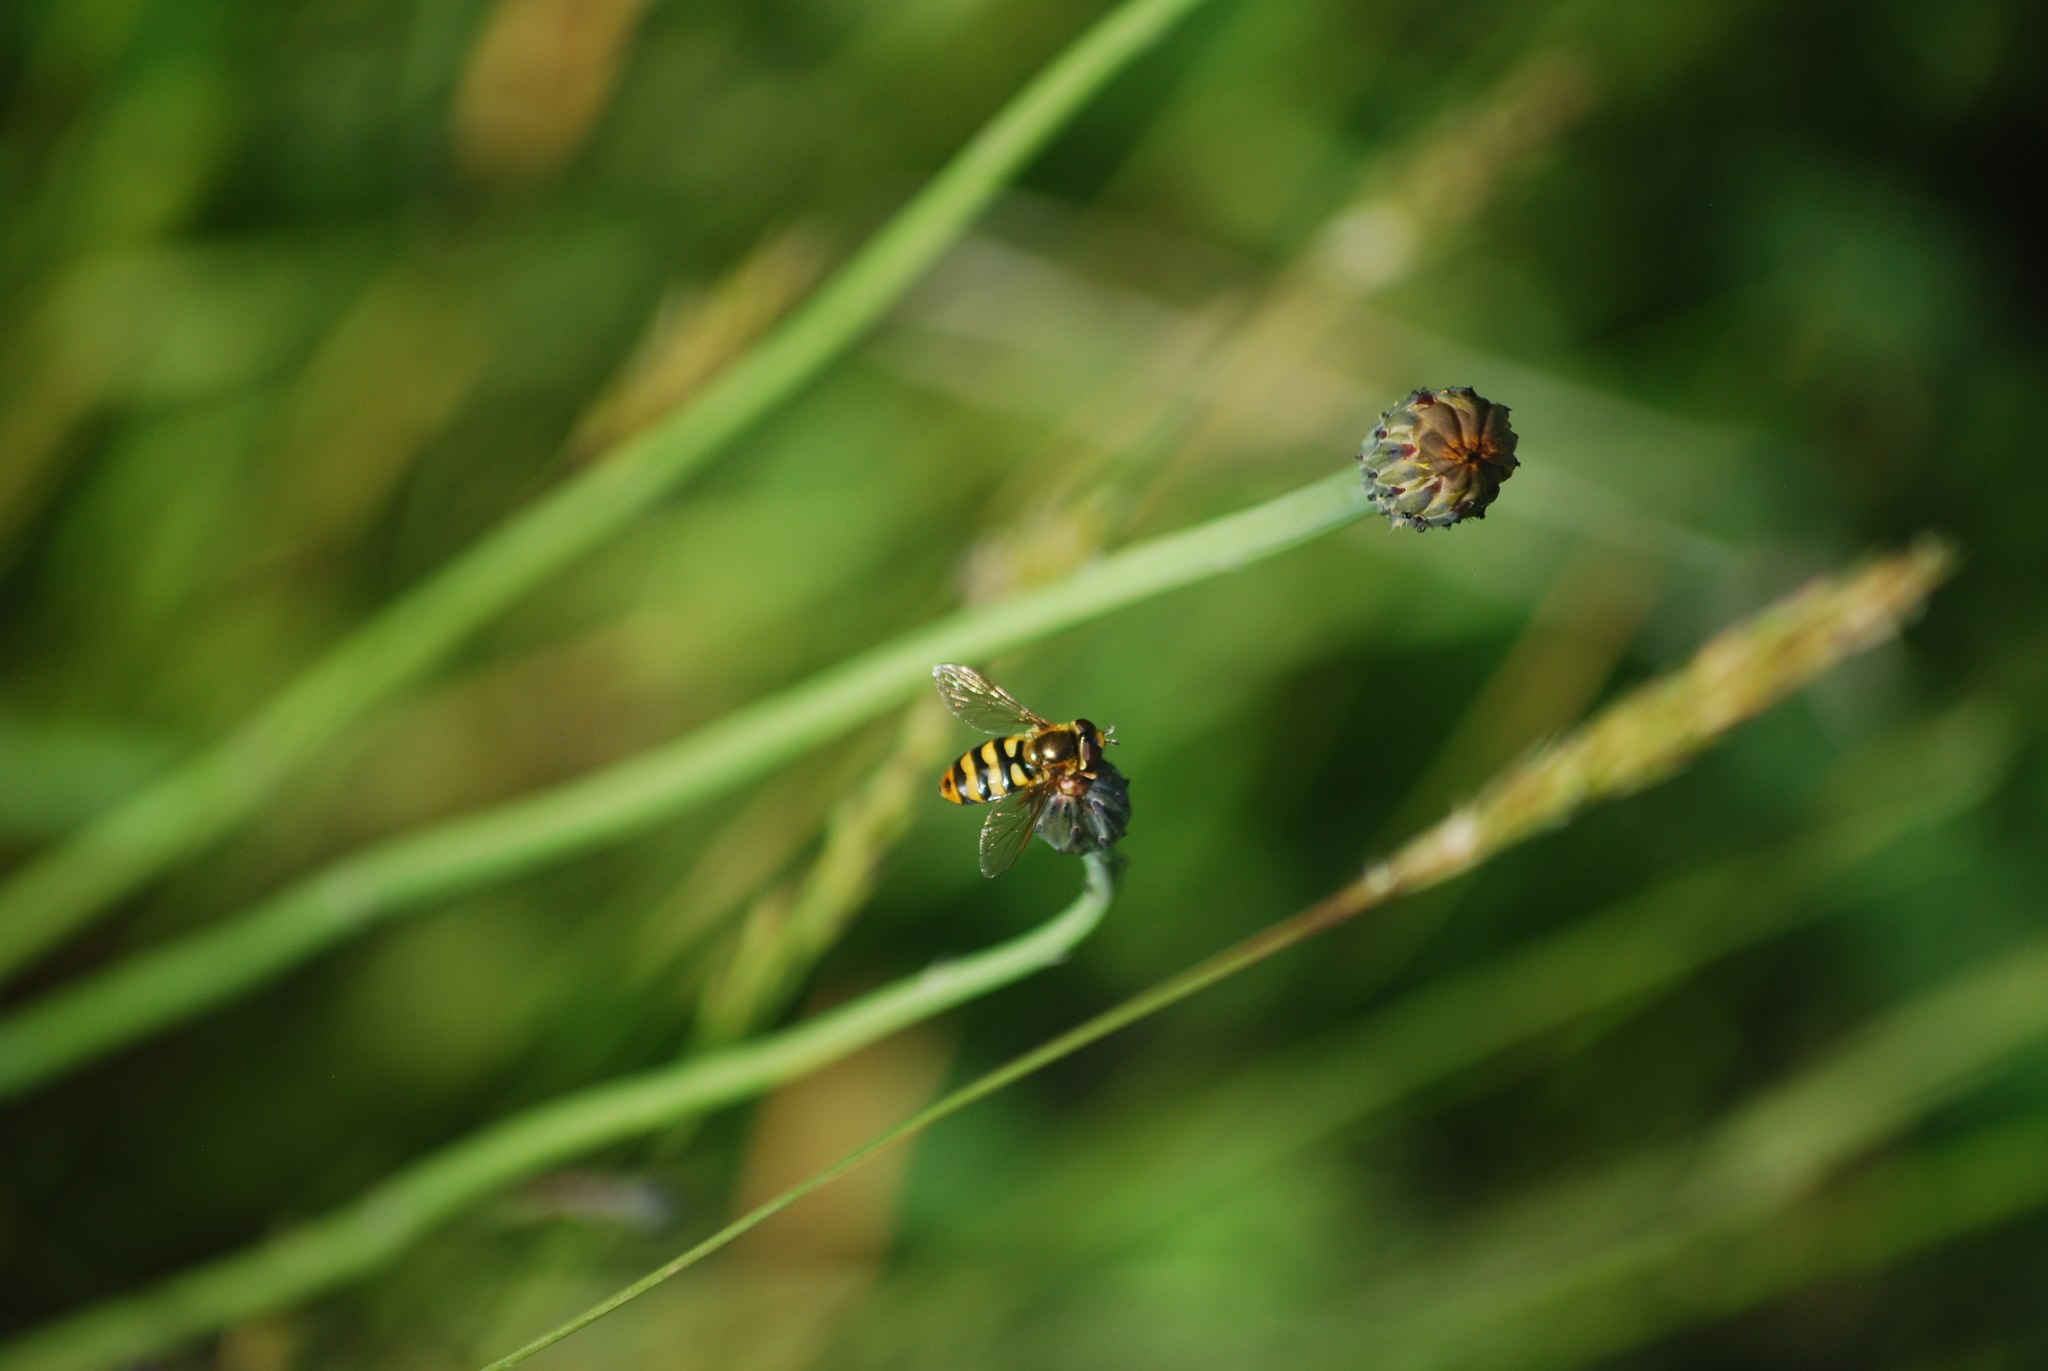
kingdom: Animalia
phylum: Arthropoda
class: Insecta
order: Diptera
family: Syrphidae
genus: Eupeodes
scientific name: Eupeodes latifasciatus
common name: Variable aphideater
